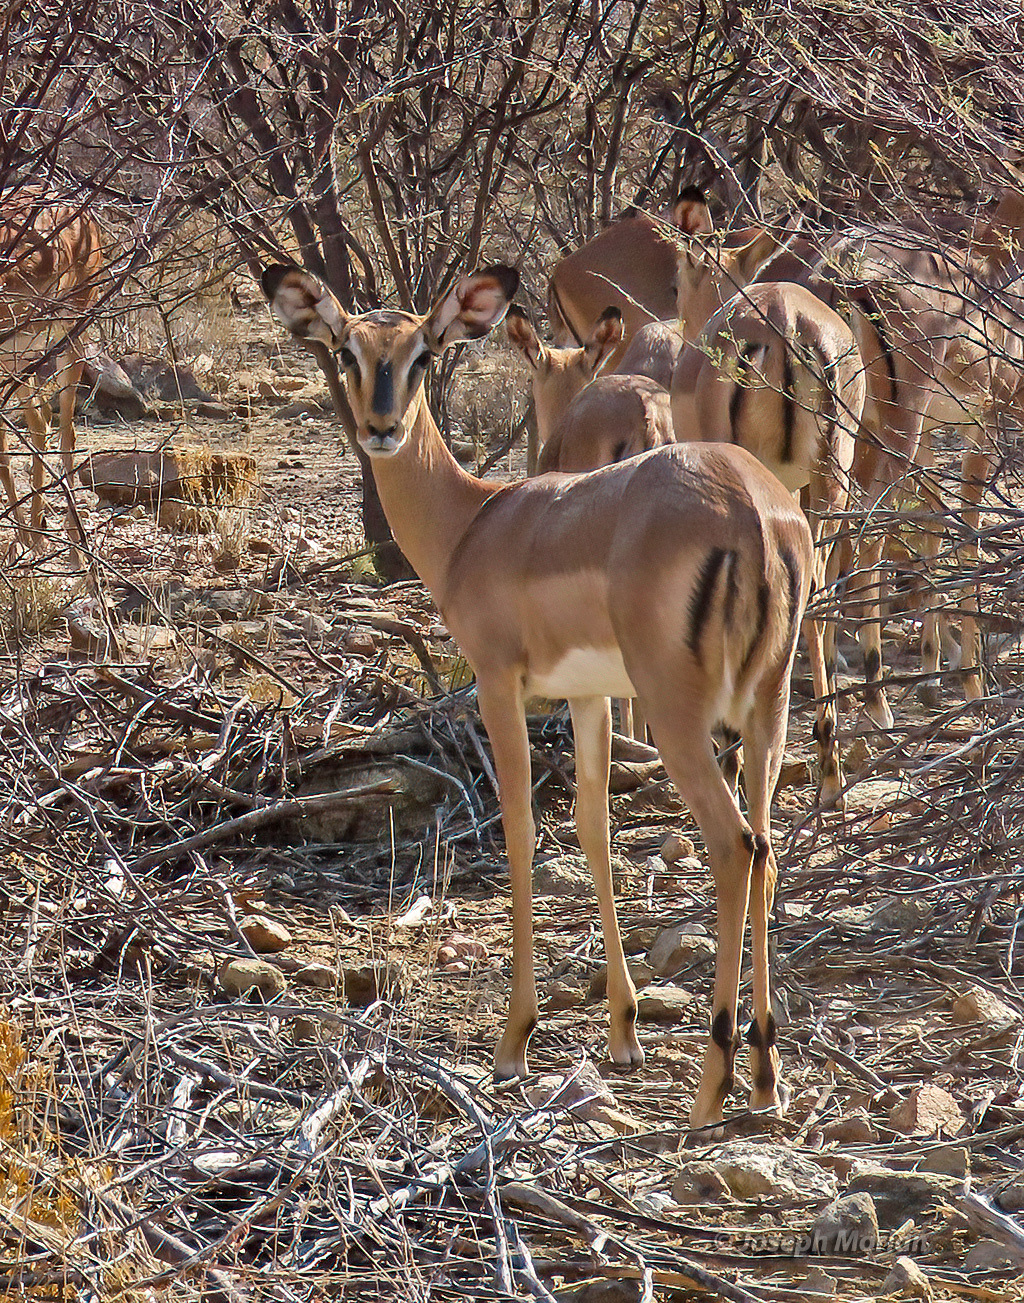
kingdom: Animalia
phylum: Chordata
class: Mammalia
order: Artiodactyla
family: Bovidae
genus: Aepyceros
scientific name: Aepyceros melampus
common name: Impala
